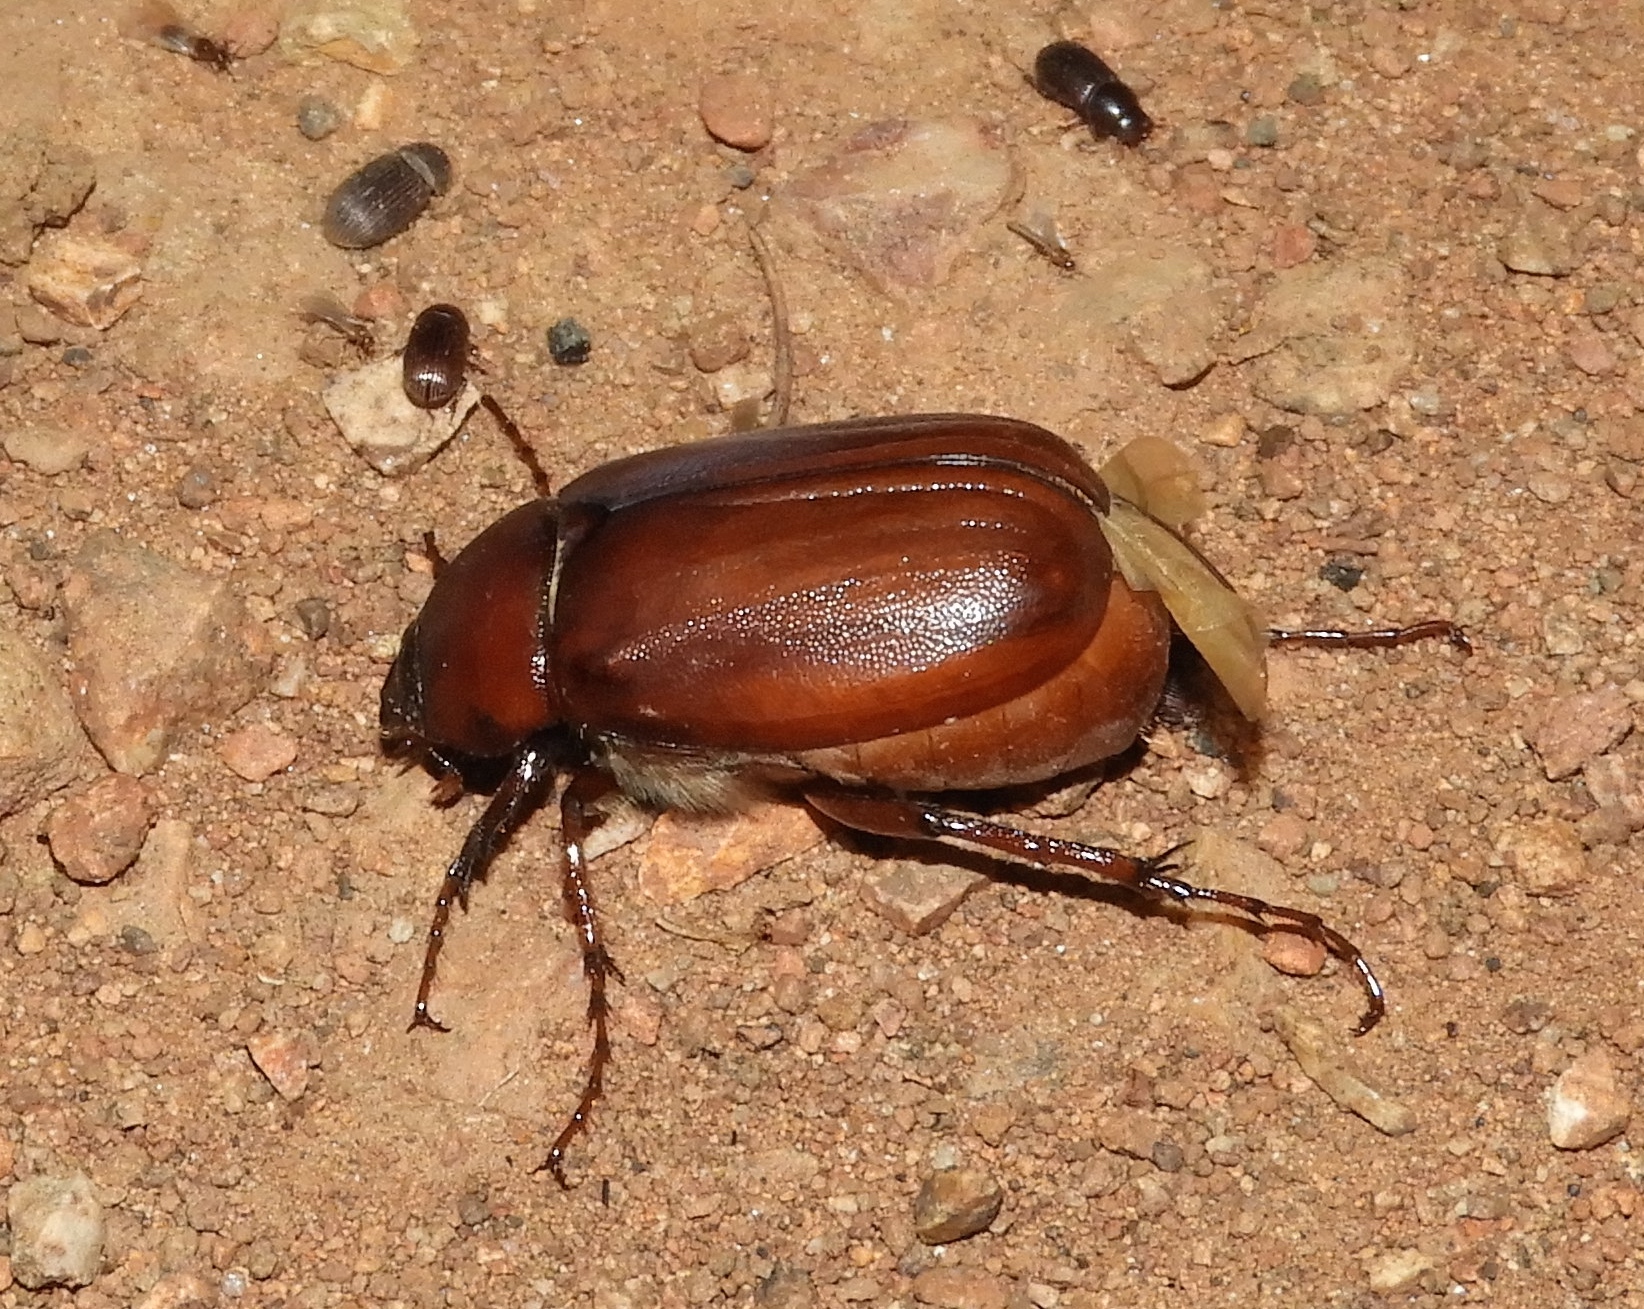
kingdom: Animalia
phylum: Arthropoda
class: Insecta
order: Coleoptera
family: Scarabaeidae
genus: Phyllophaga
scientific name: Phyllophaga
